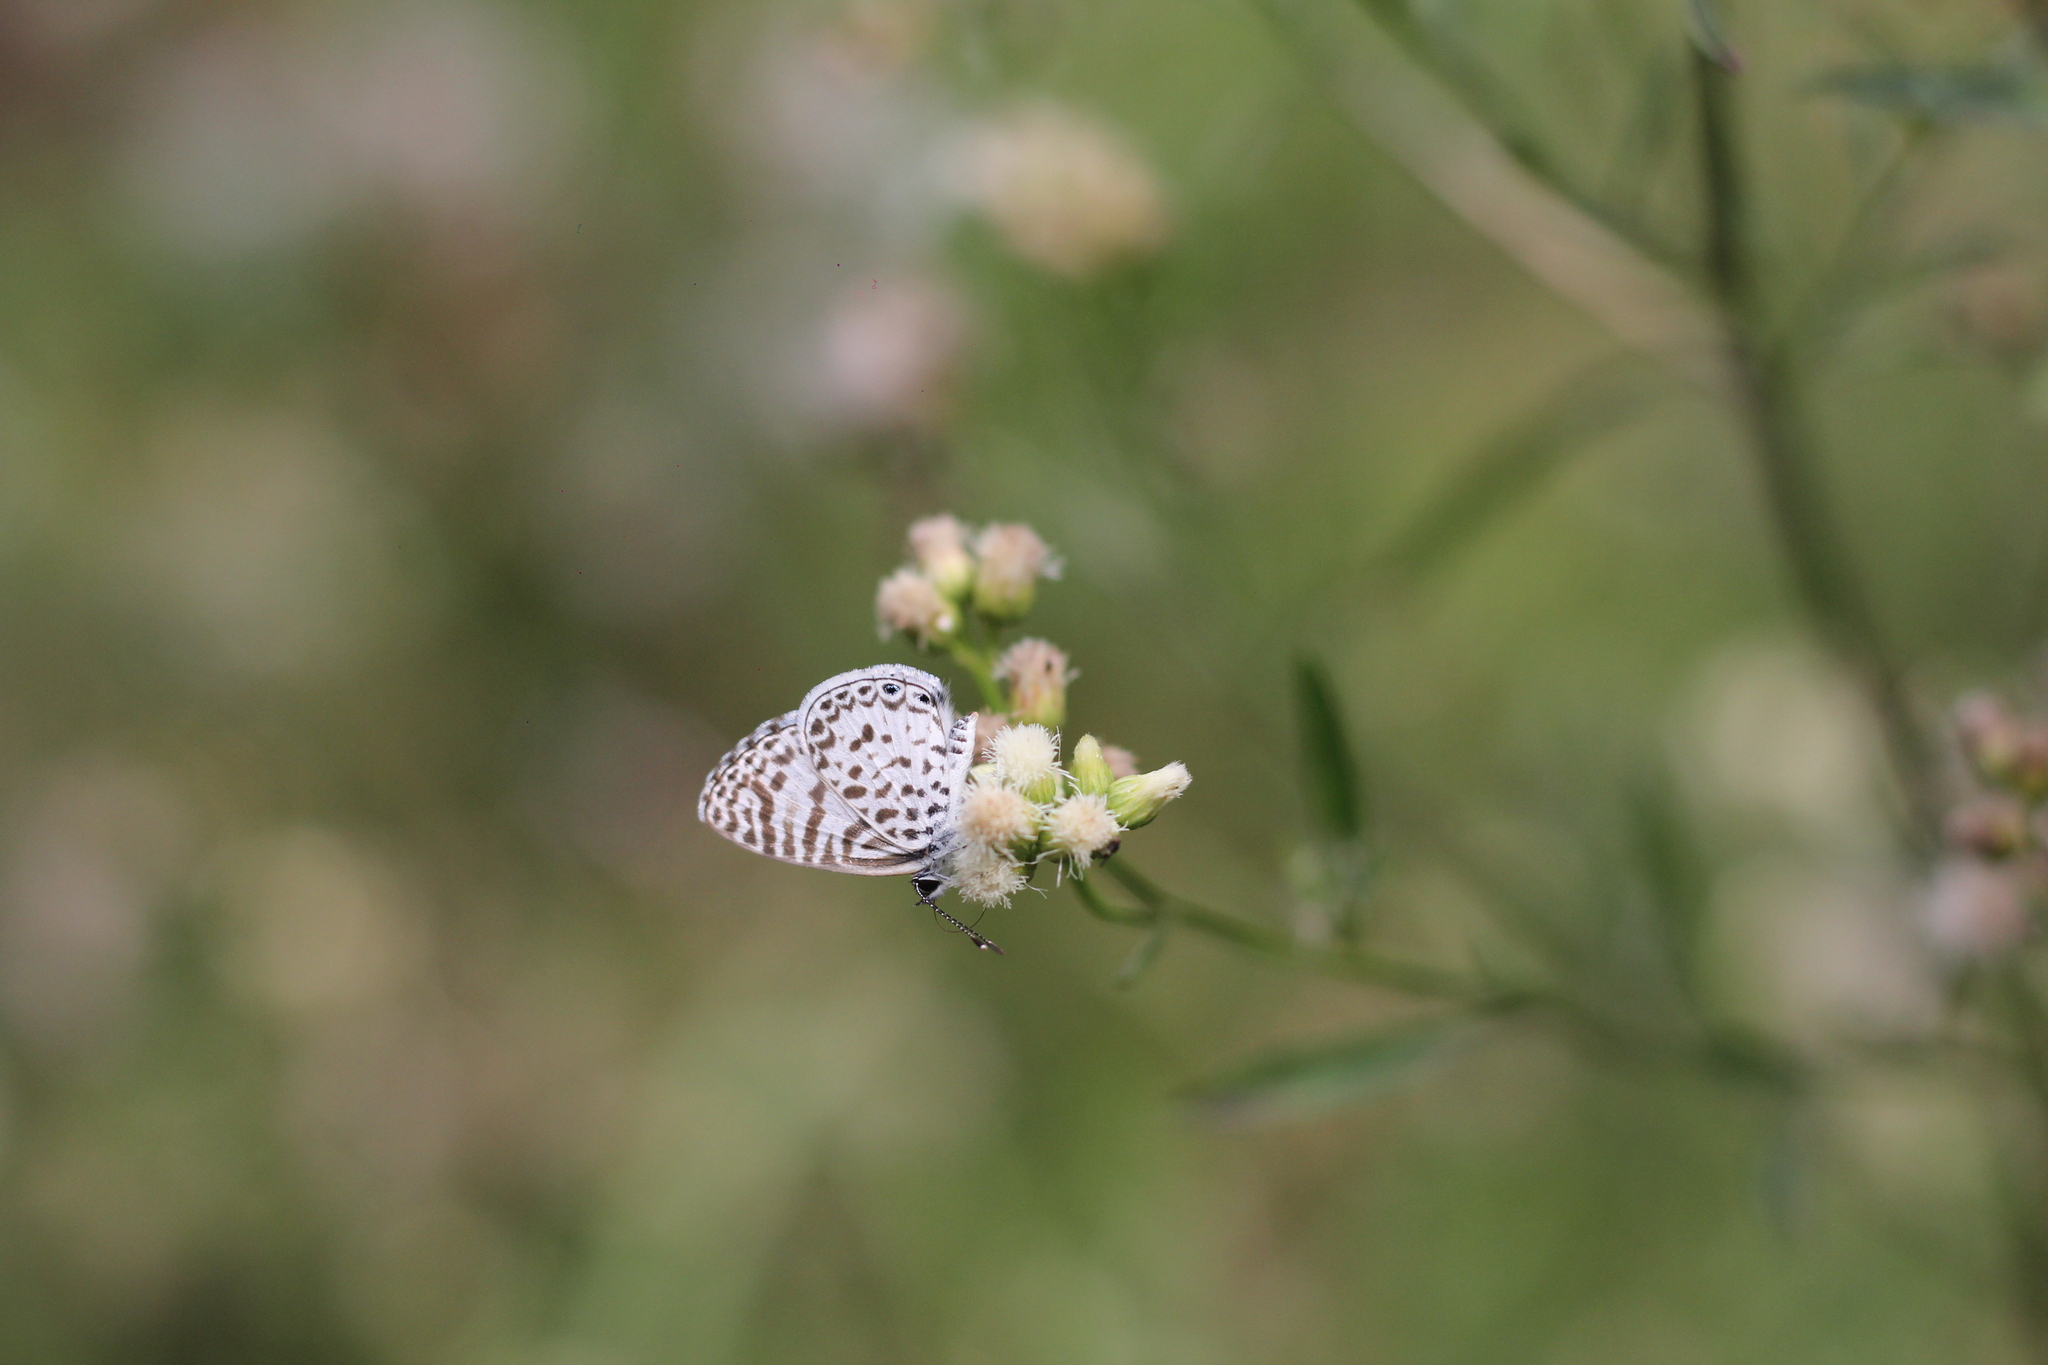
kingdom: Animalia
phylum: Arthropoda
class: Insecta
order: Lepidoptera
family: Lycaenidae
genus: Leptotes
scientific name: Leptotes cassius
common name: Cassius blue
